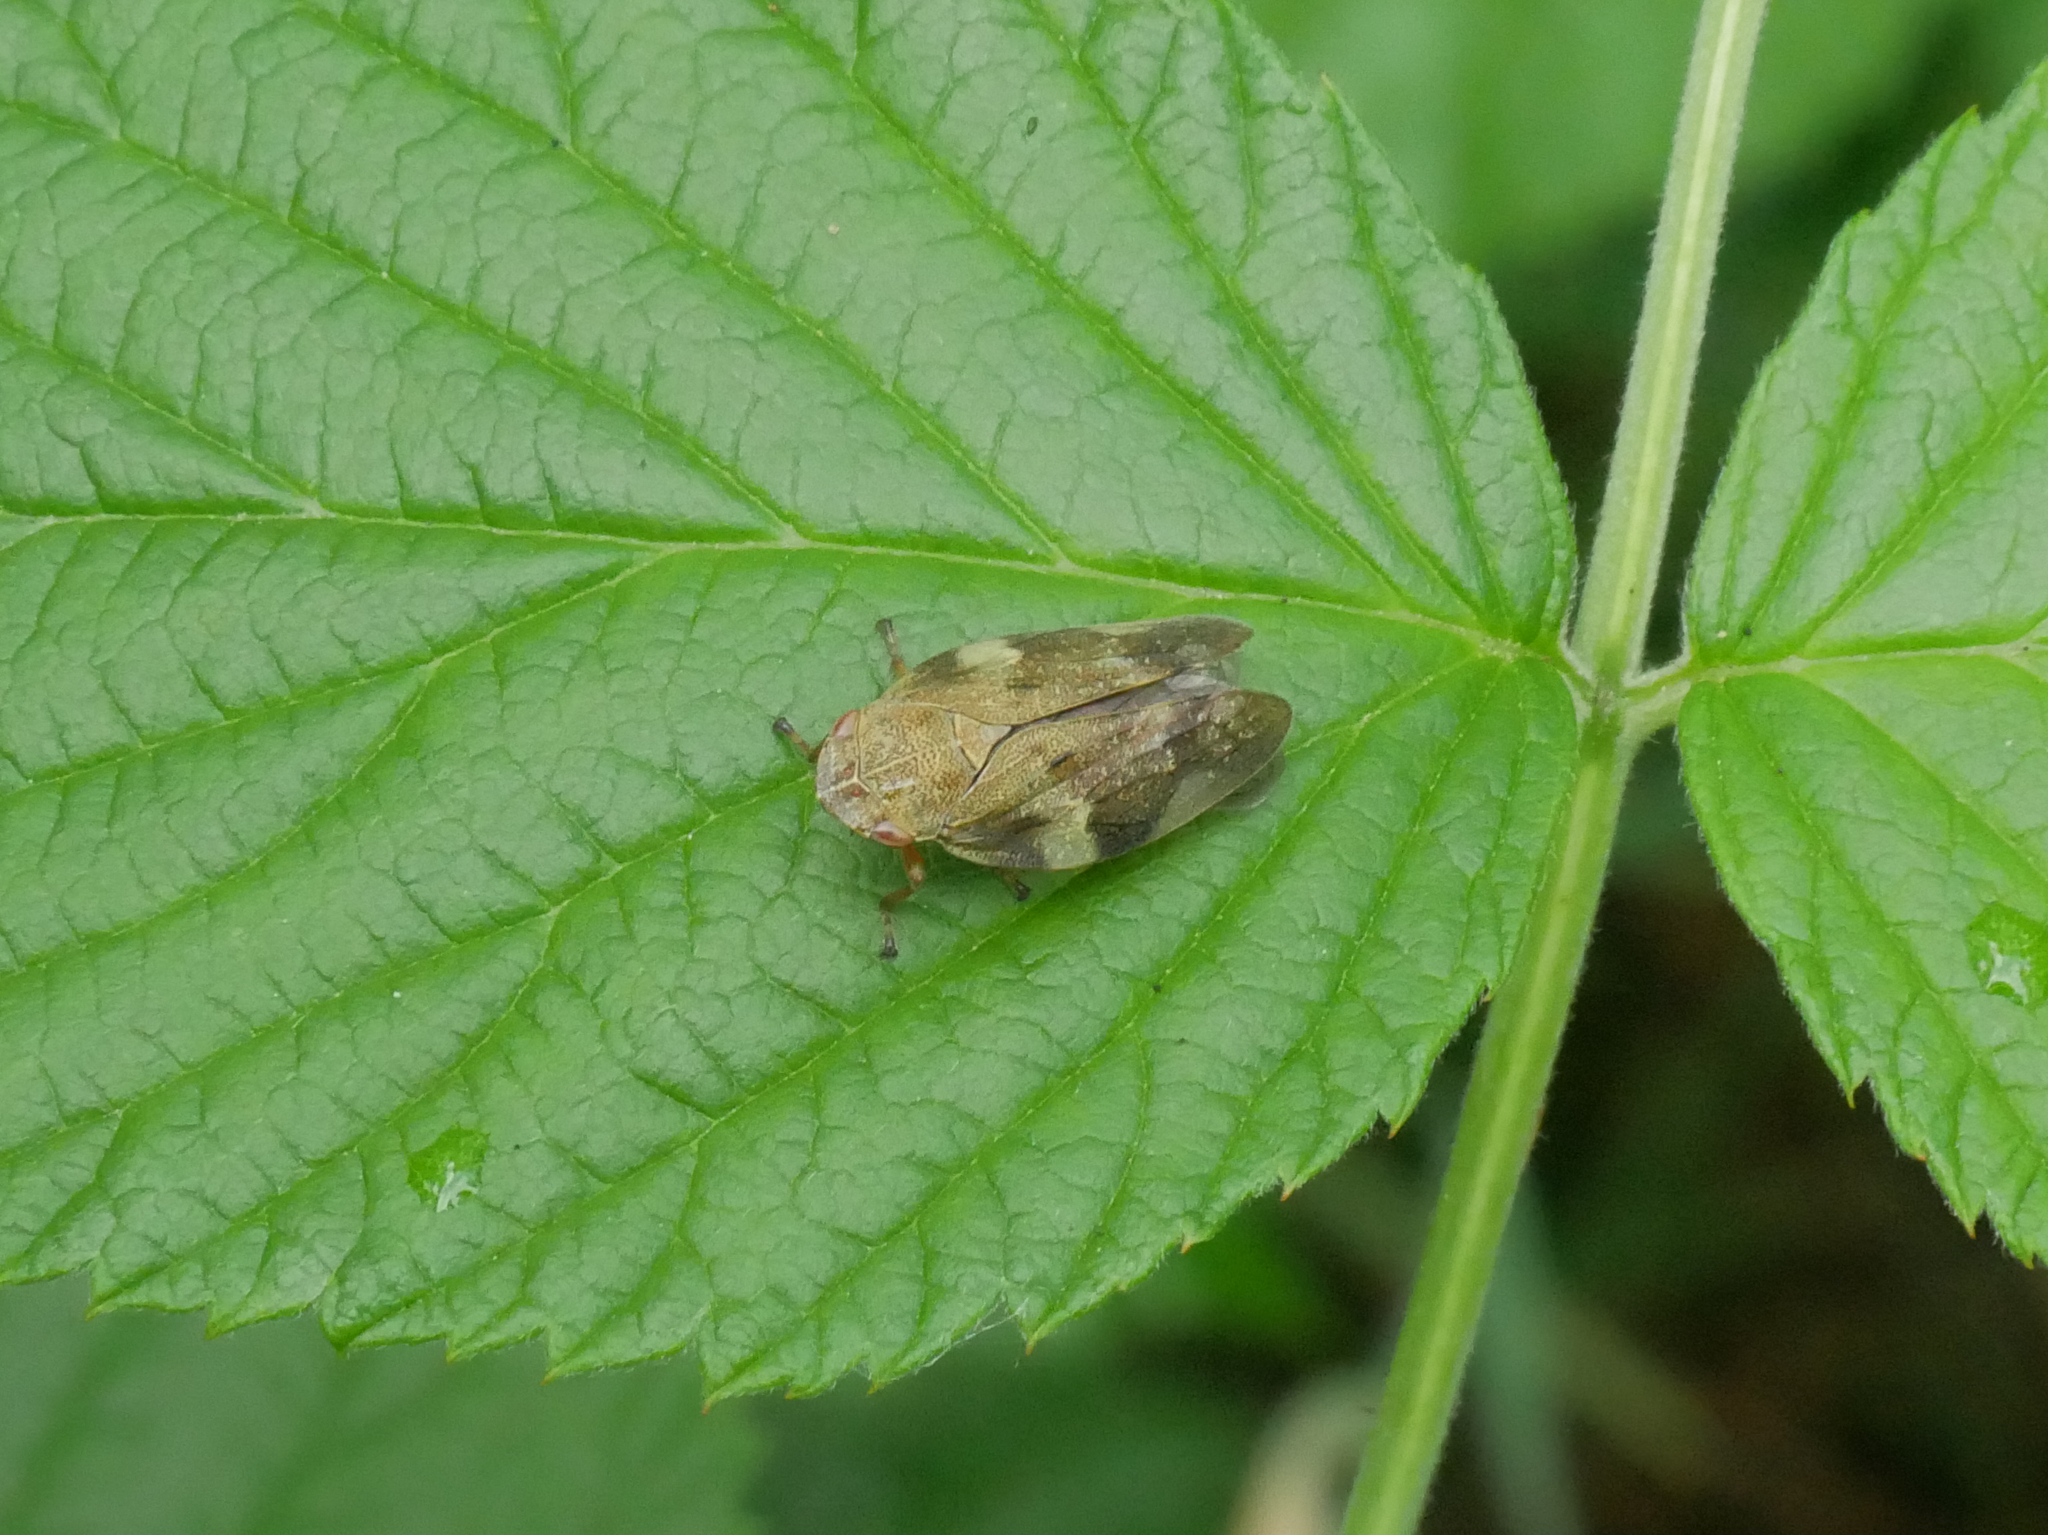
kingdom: Animalia
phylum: Arthropoda
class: Insecta
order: Hemiptera
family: Aphrophoridae
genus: Aphrophora
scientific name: Aphrophora alni
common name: European alder spittlebug
